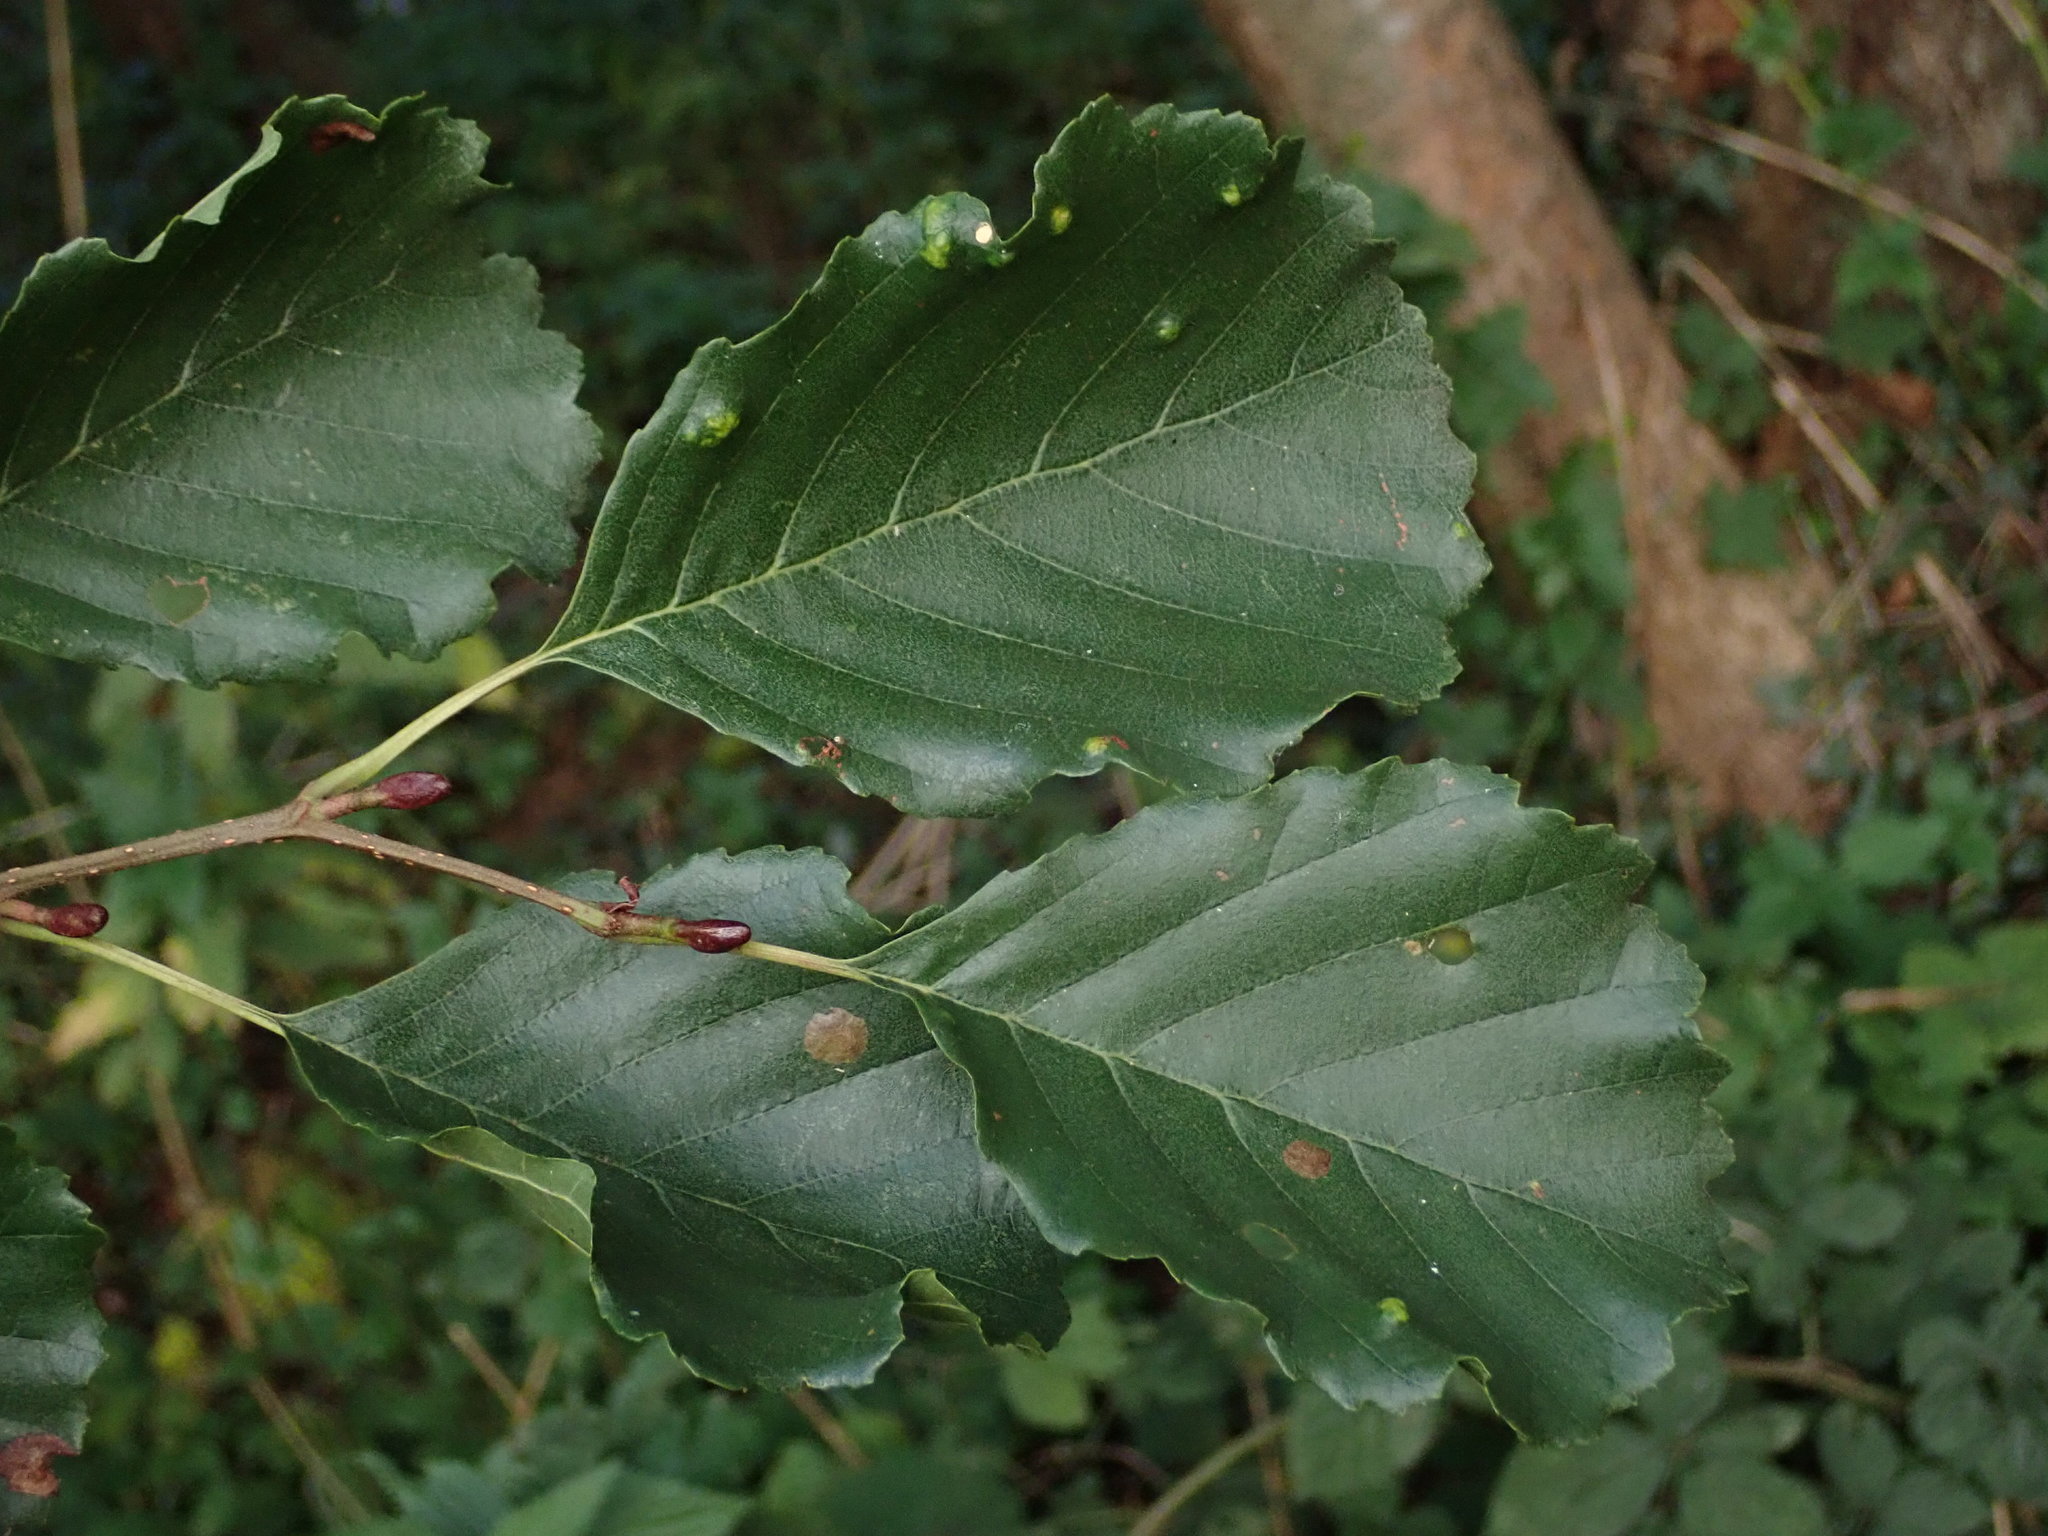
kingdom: Plantae
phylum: Tracheophyta
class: Magnoliopsida
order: Fagales
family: Betulaceae
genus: Alnus
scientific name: Alnus glutinosa
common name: Black alder
